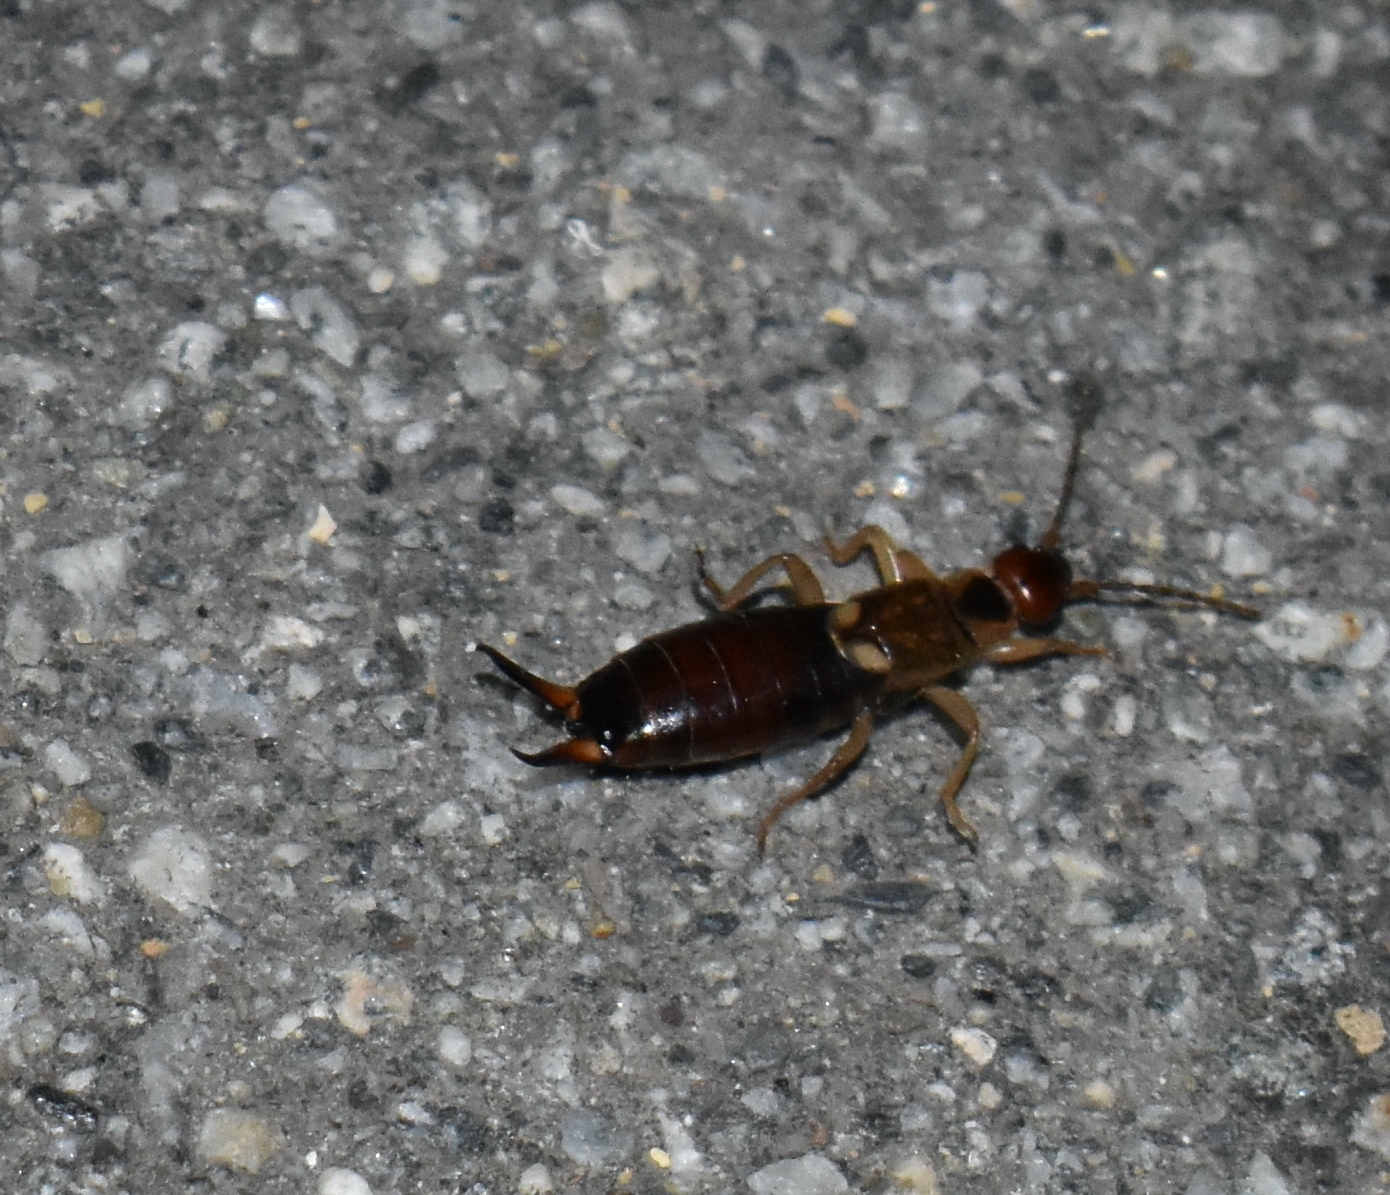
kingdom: Animalia
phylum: Arthropoda
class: Insecta
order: Dermaptera
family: Forficulidae
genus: Forficula
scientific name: Forficula dentata
